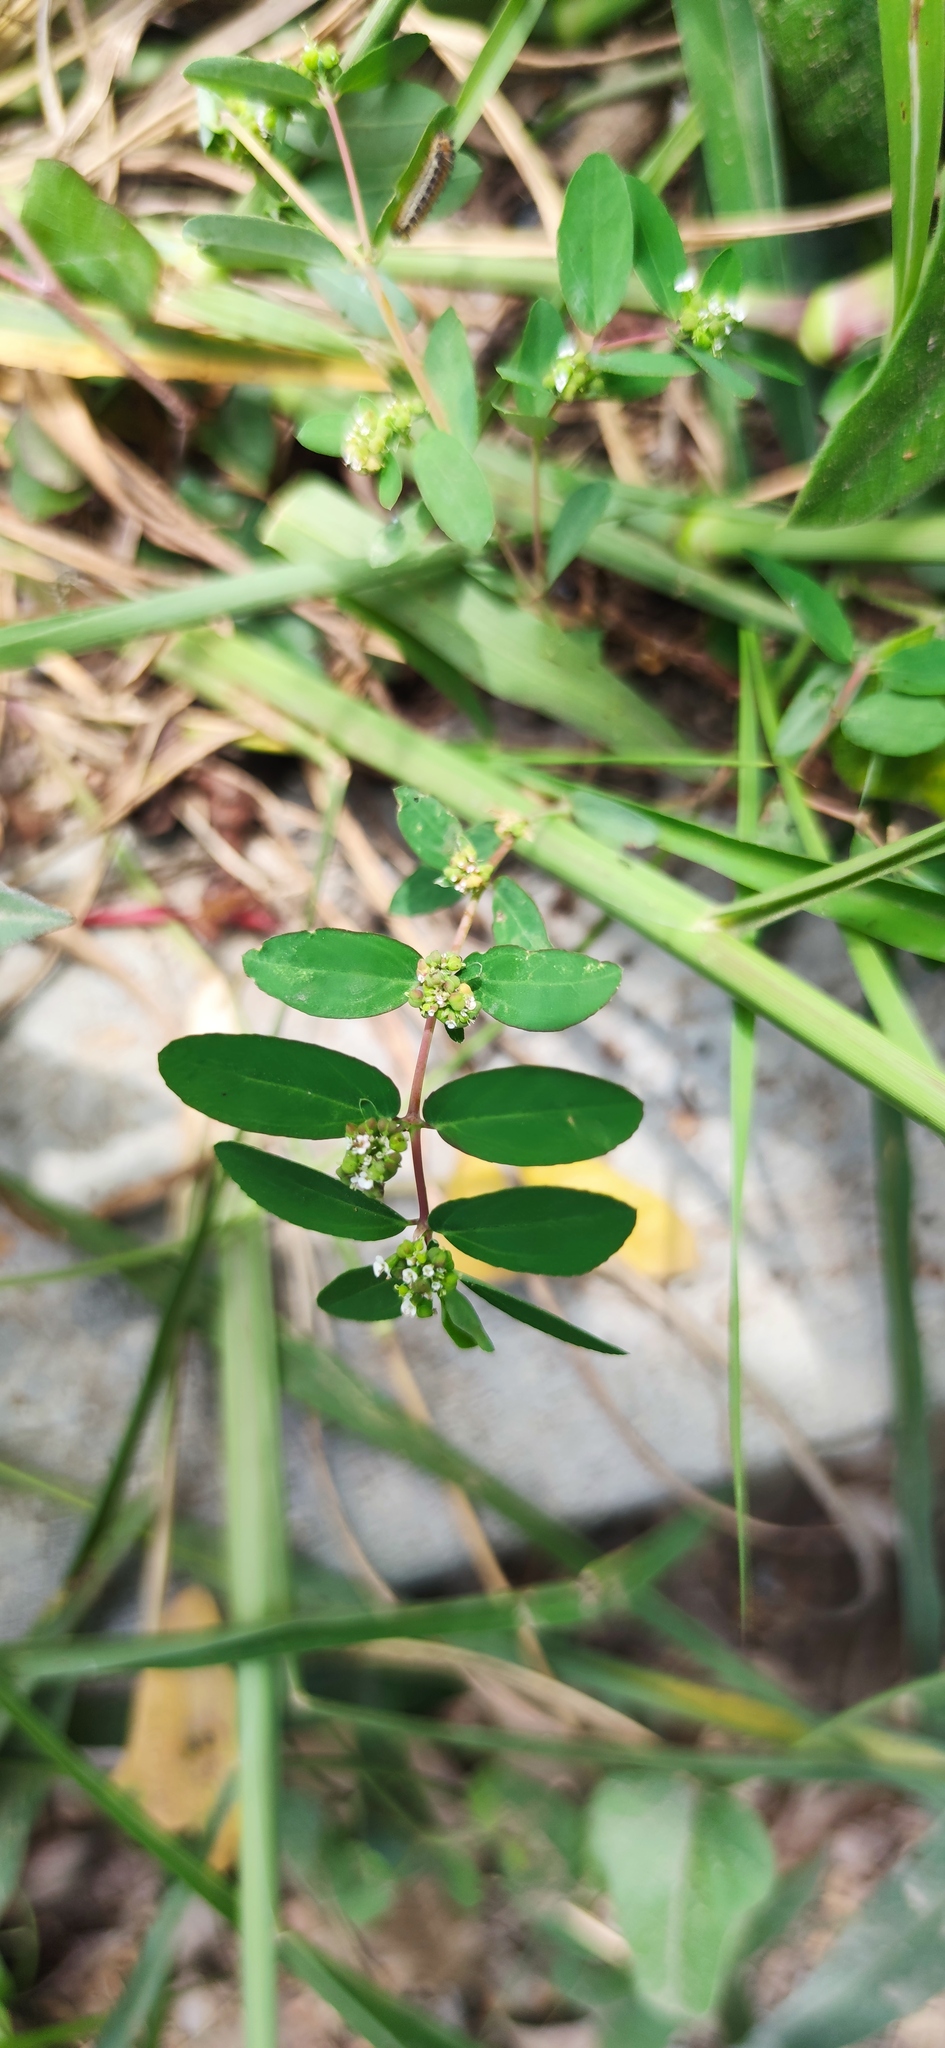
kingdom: Plantae
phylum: Tracheophyta
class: Magnoliopsida
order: Malpighiales
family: Euphorbiaceae
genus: Euphorbia
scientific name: Euphorbia hypericifolia
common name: Graceful sandmat
